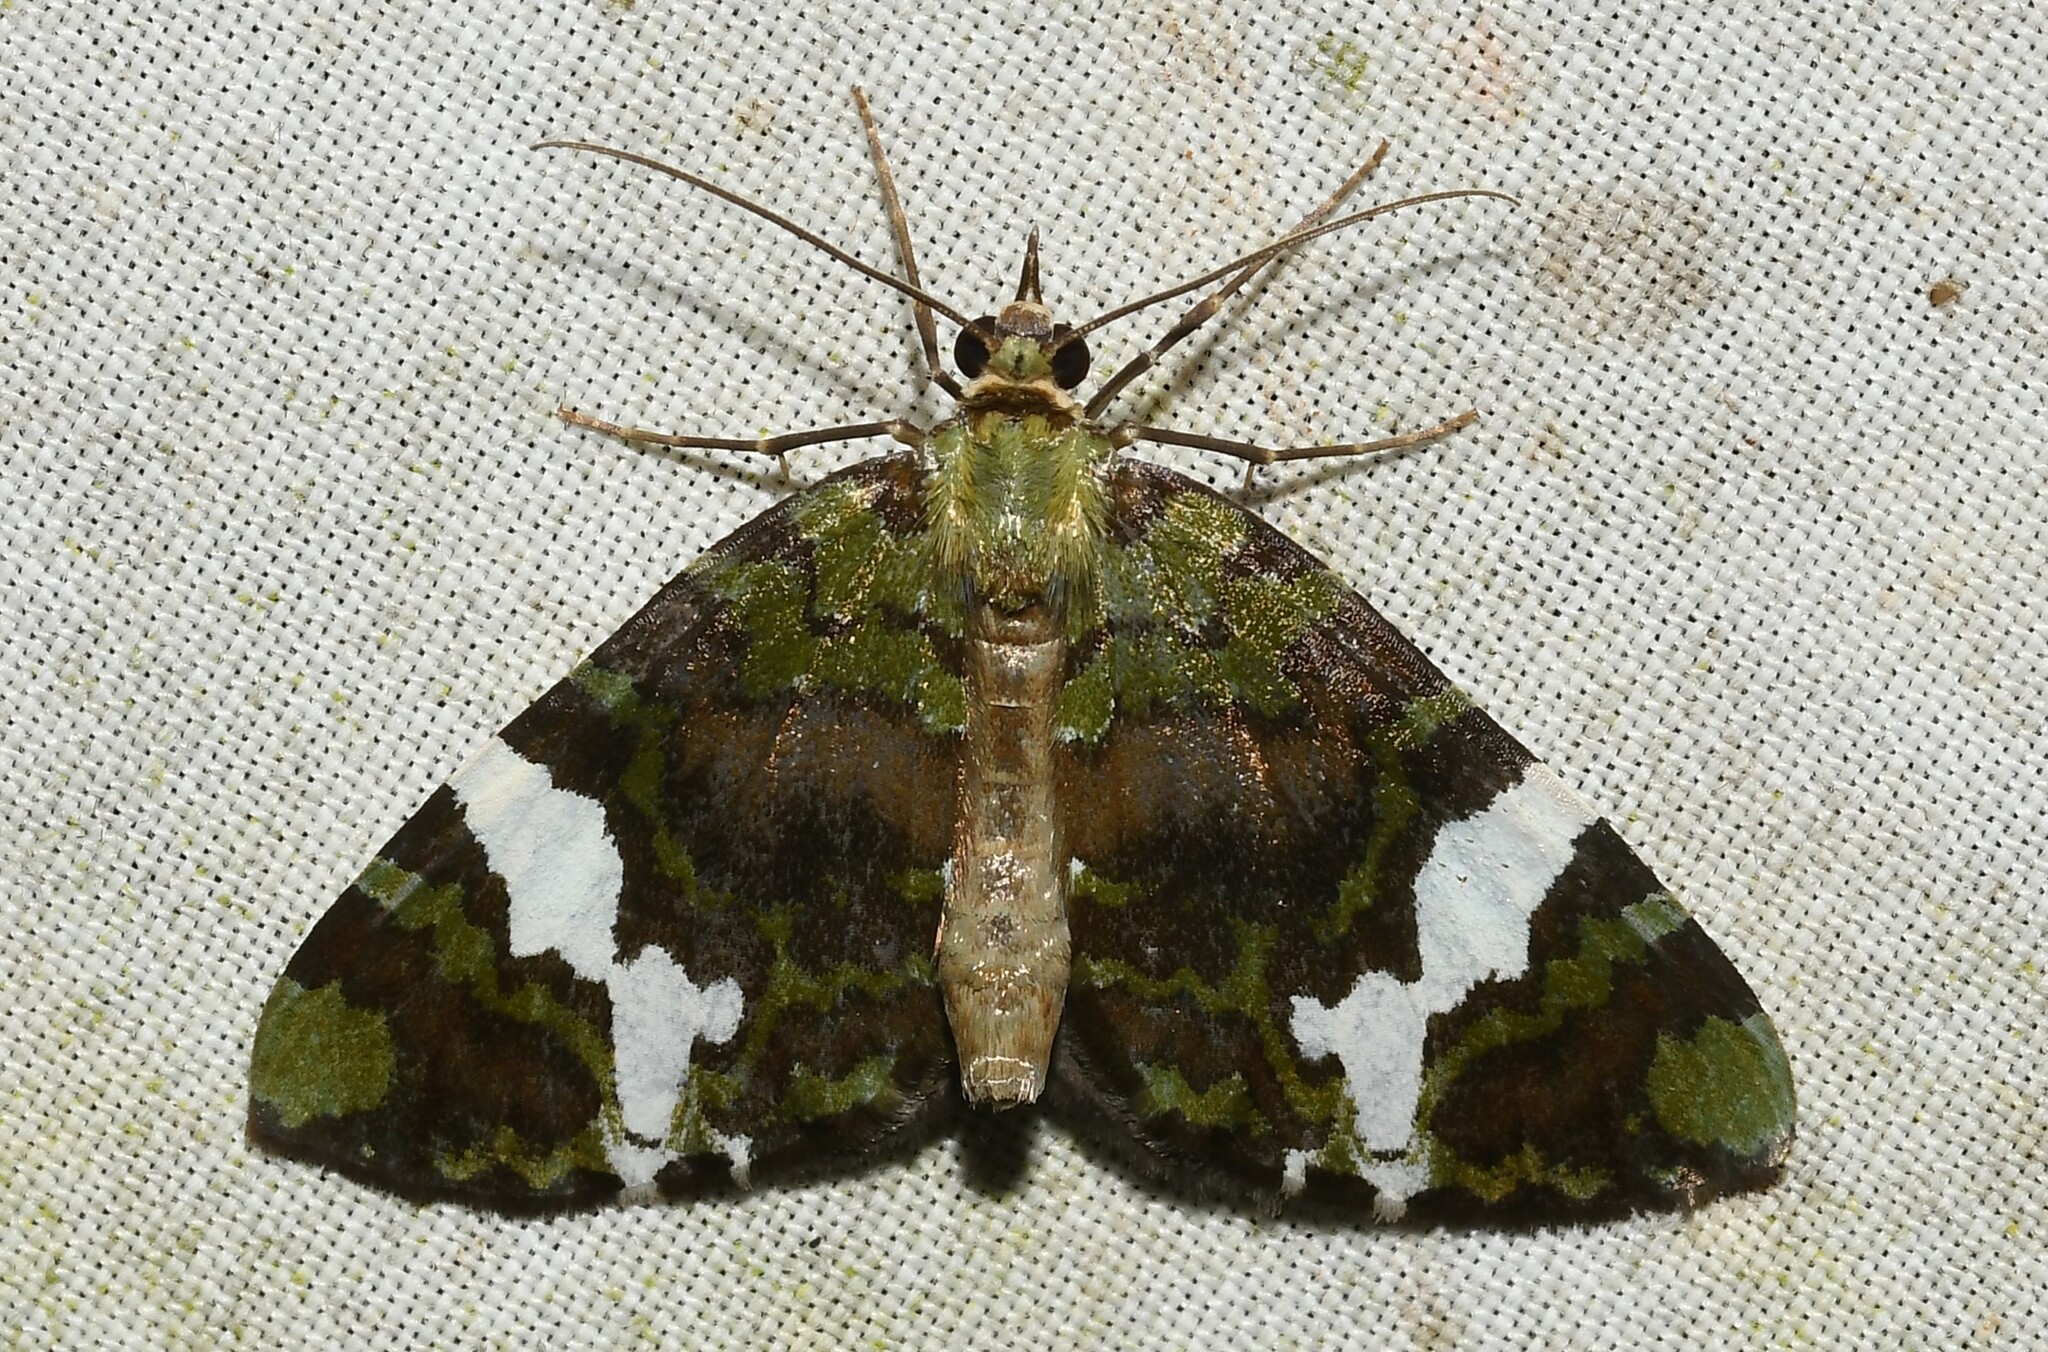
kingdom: Animalia
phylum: Arthropoda
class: Insecta
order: Lepidoptera
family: Geometridae
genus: Hydriomena
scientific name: Hydriomena polyphonta
